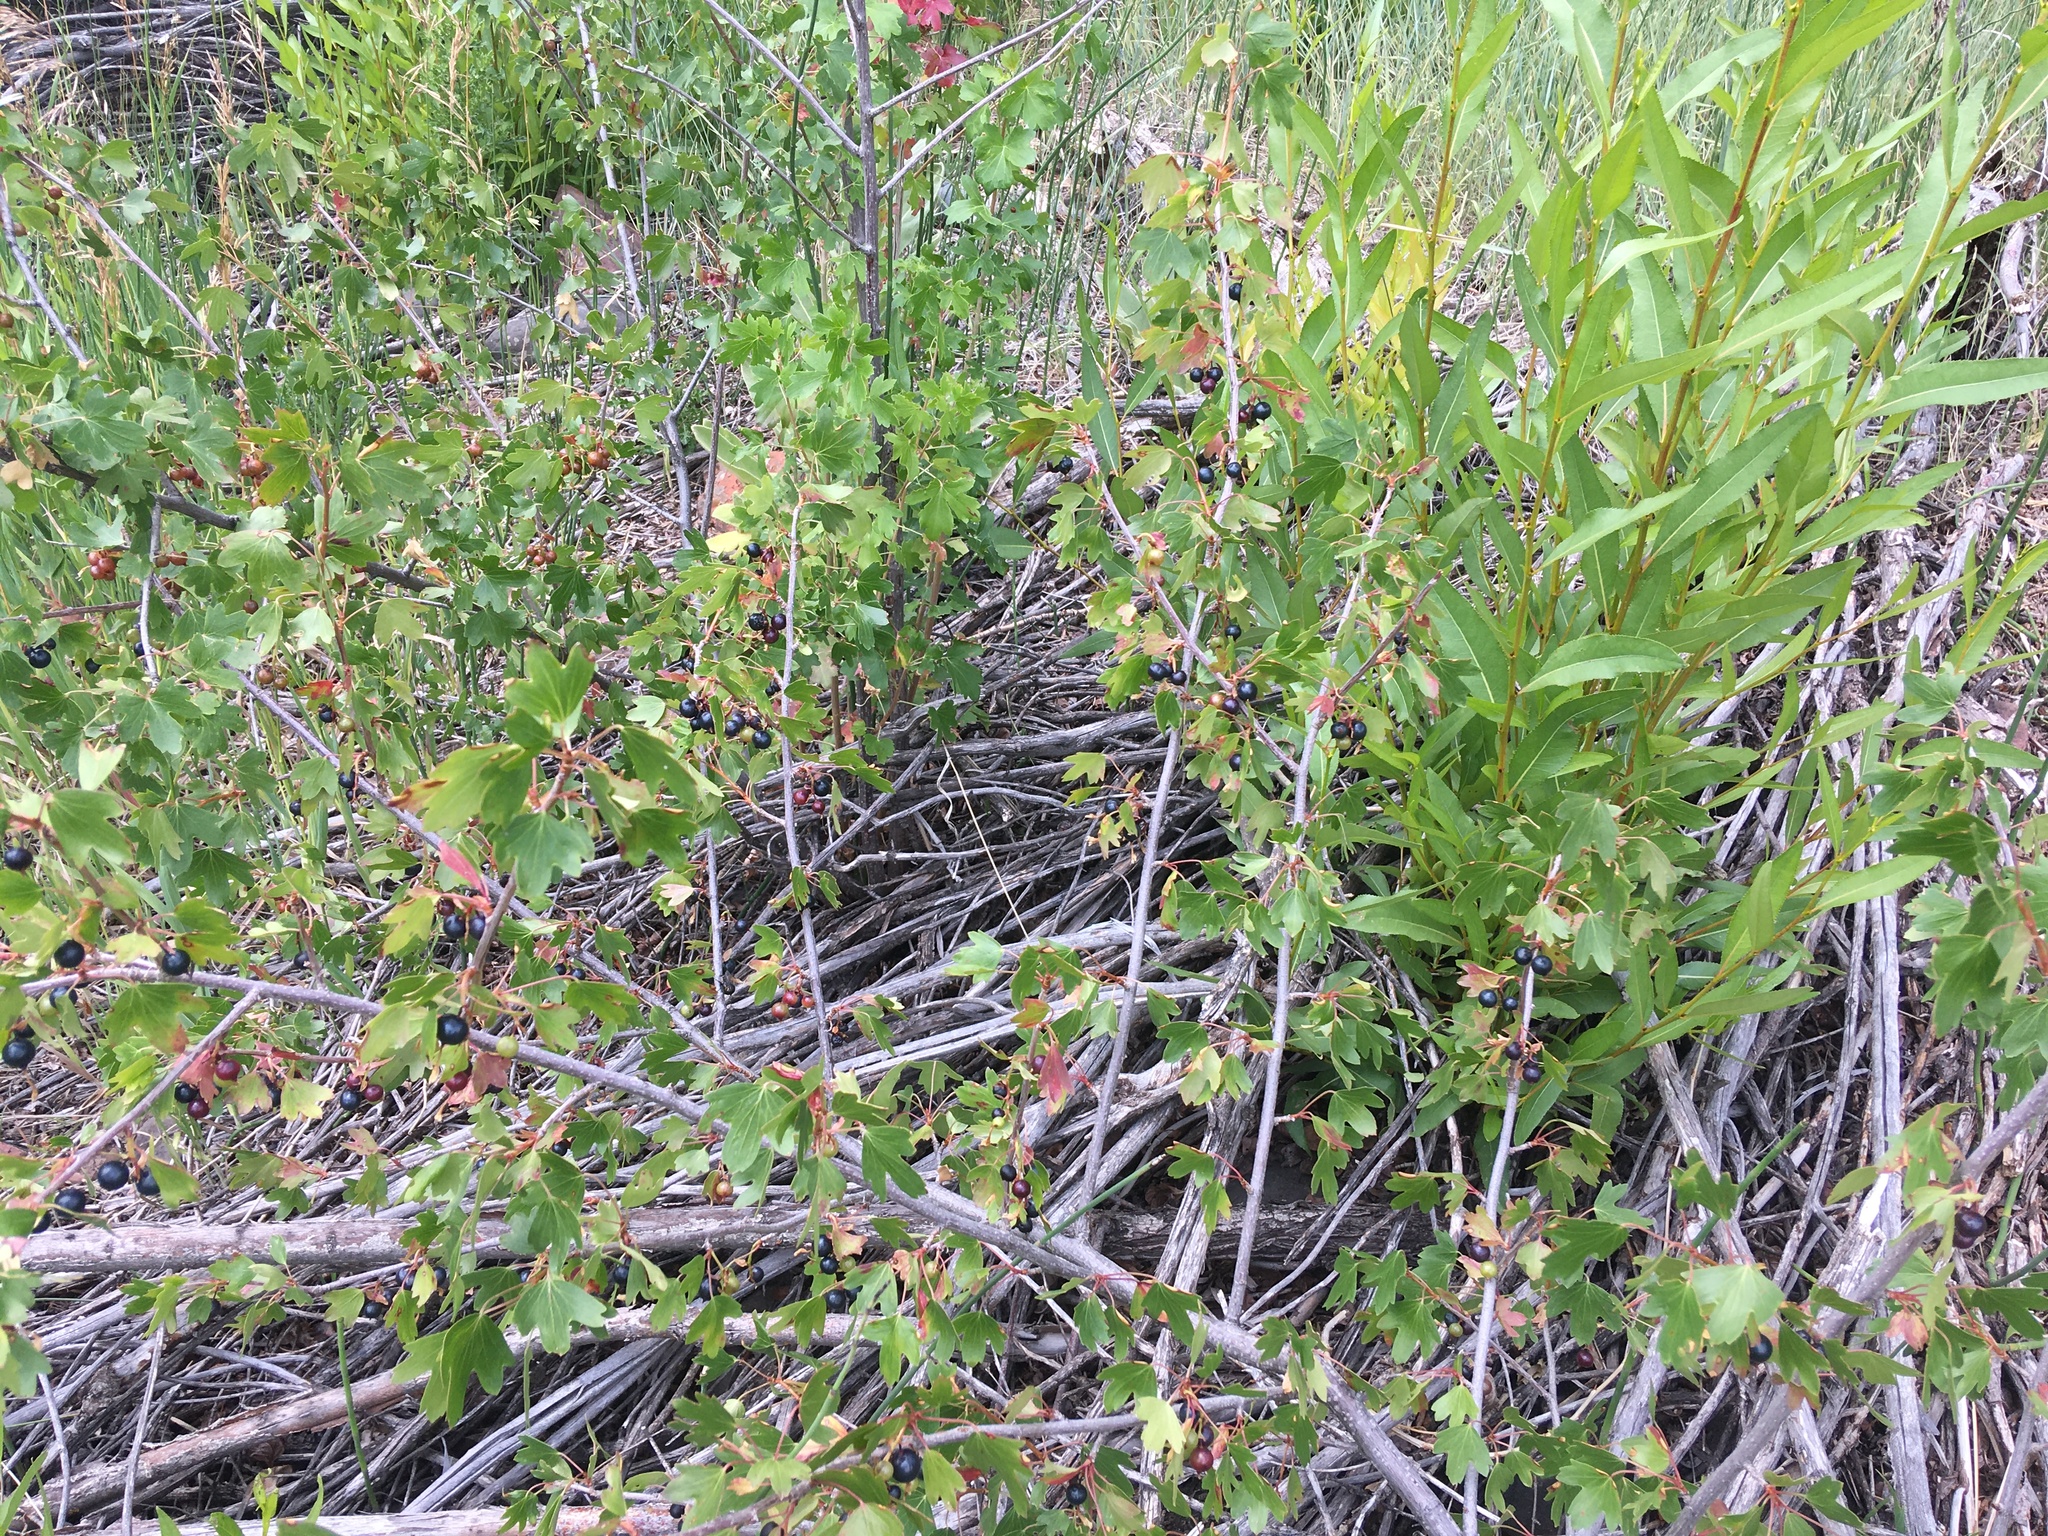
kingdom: Plantae
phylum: Tracheophyta
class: Magnoliopsida
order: Saxifragales
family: Grossulariaceae
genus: Ribes
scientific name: Ribes aureum
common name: Golden currant
